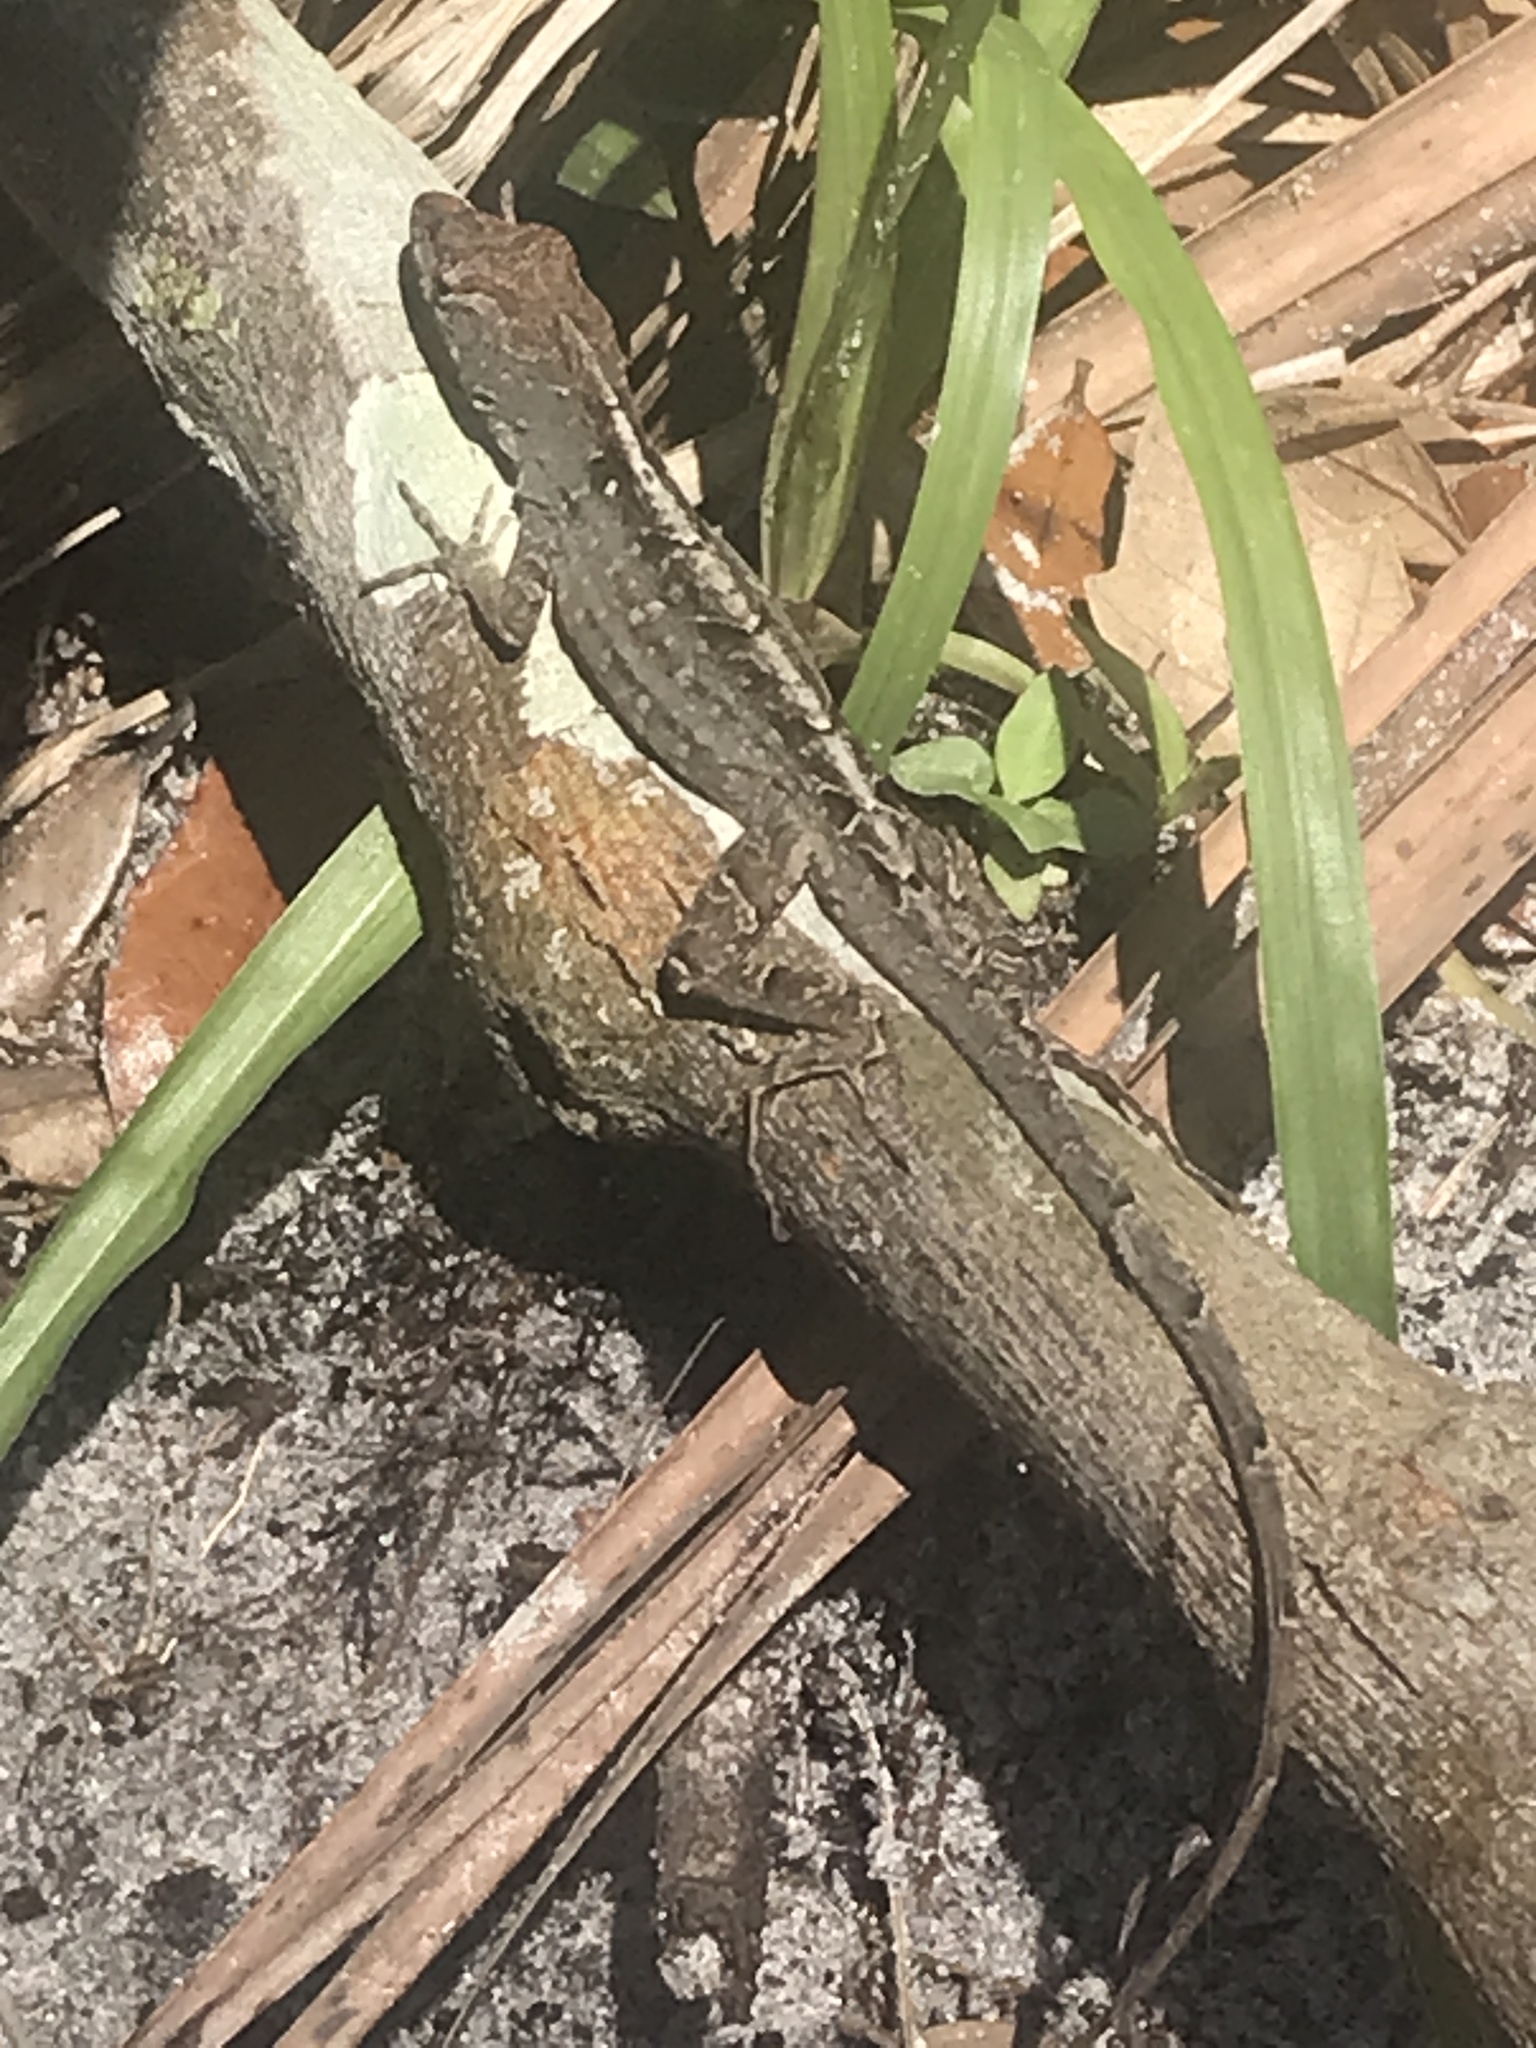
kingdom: Animalia
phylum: Chordata
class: Squamata
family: Dactyloidae
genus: Anolis
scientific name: Anolis sagrei
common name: Brown anole
